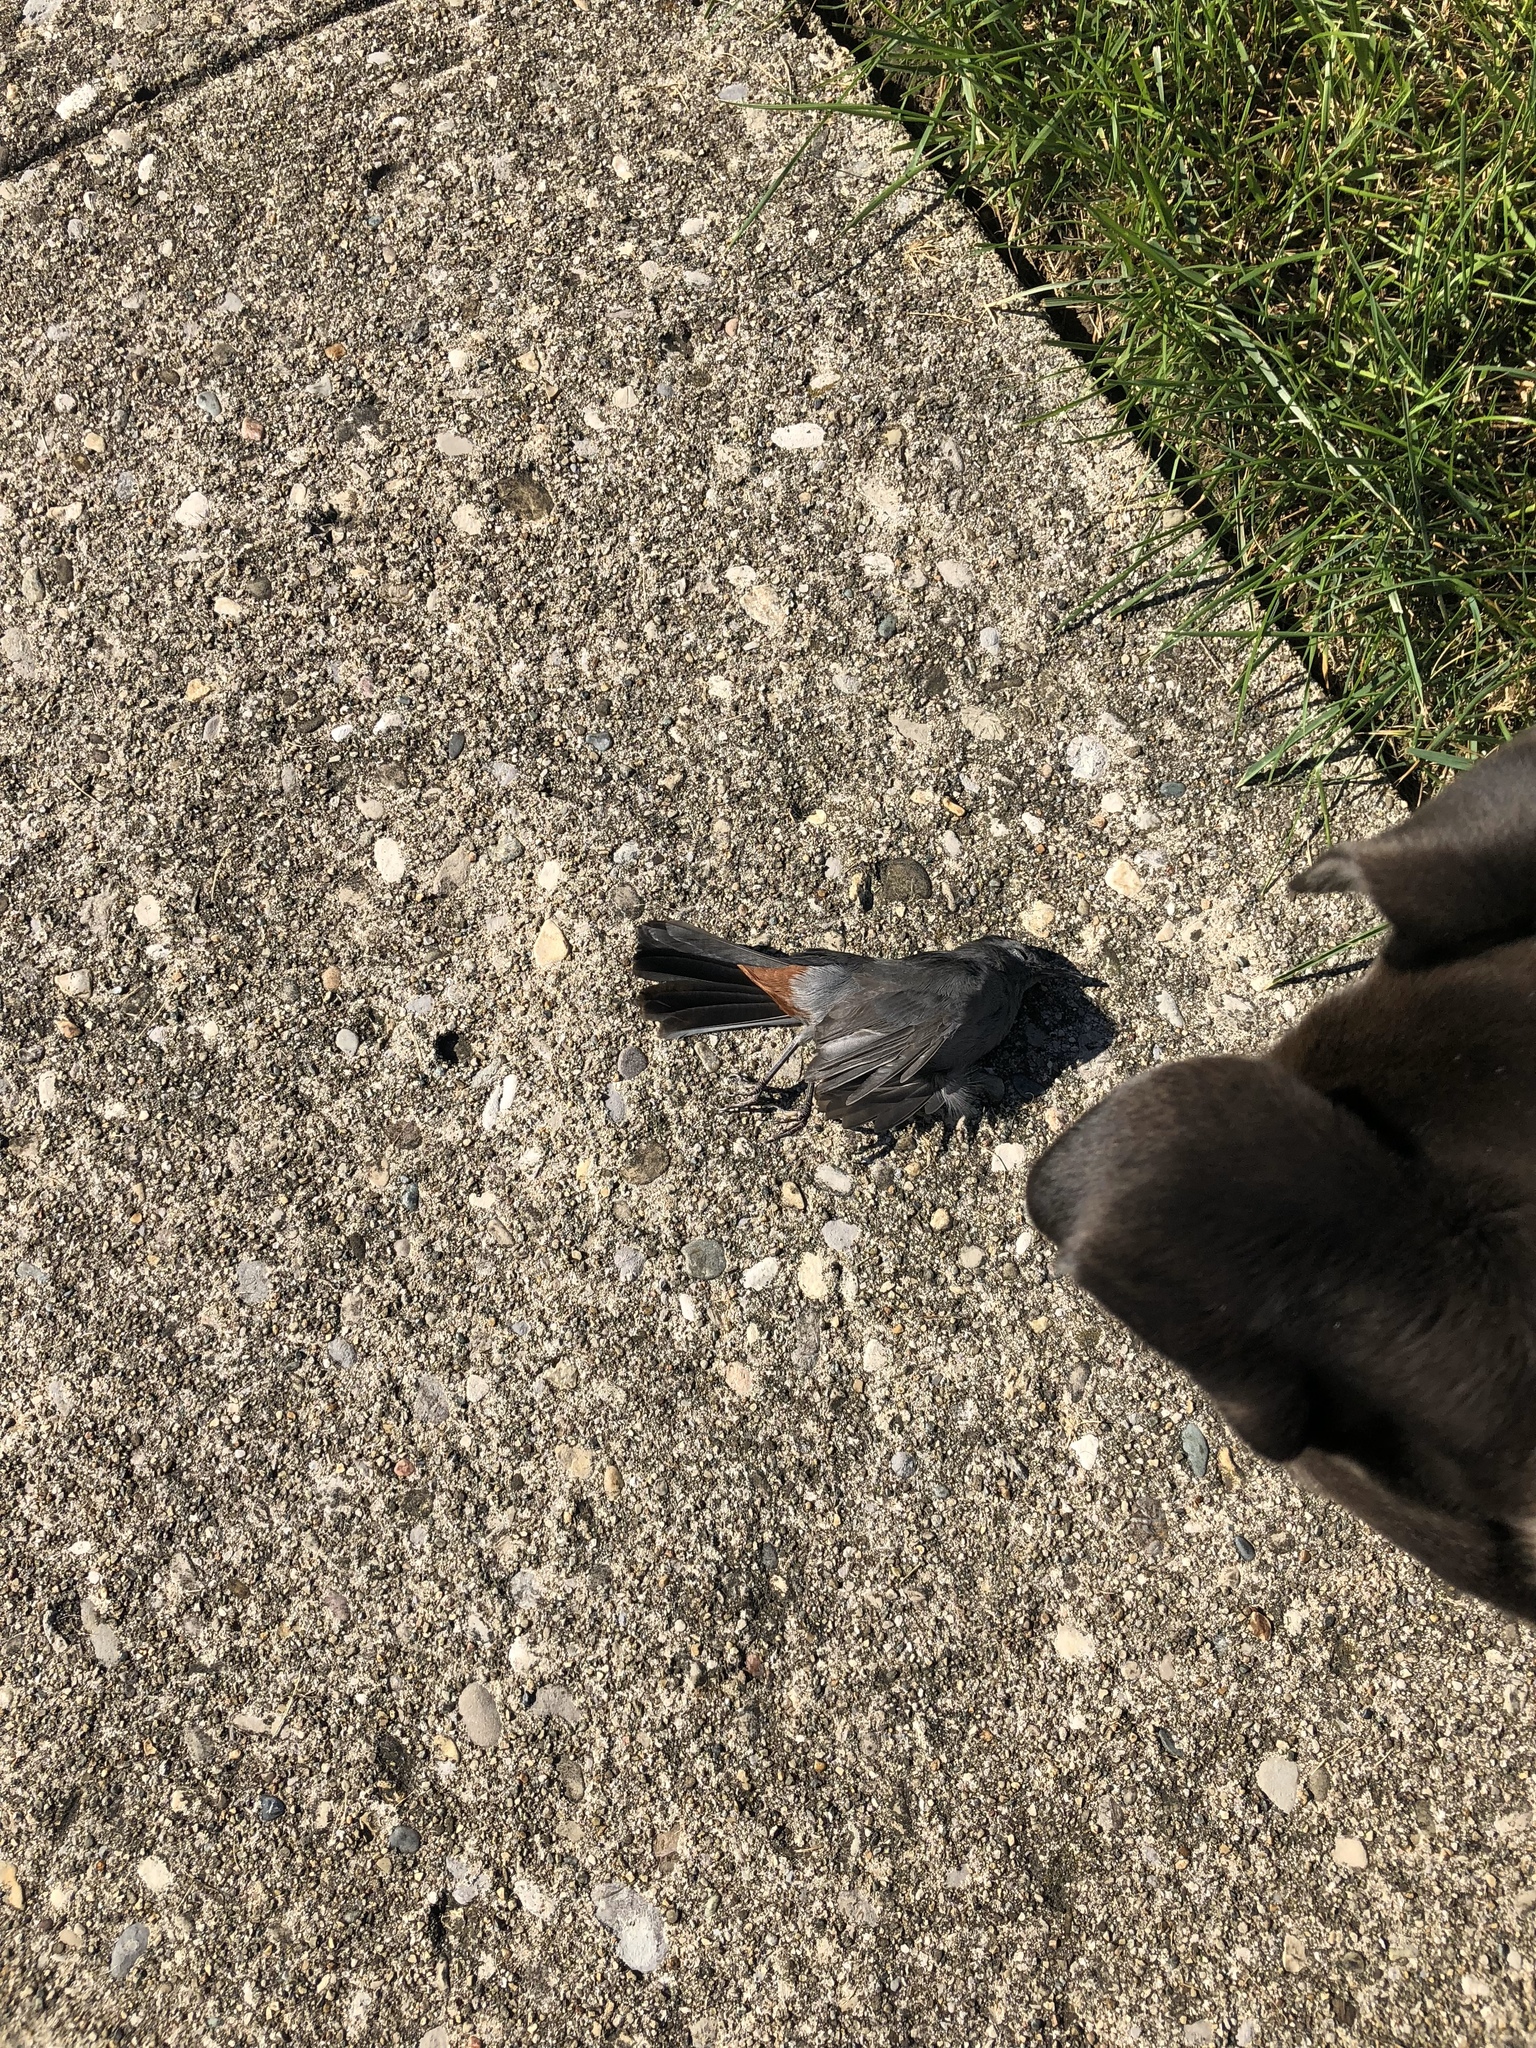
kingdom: Animalia
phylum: Chordata
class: Aves
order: Passeriformes
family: Mimidae
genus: Dumetella
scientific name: Dumetella carolinensis
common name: Gray catbird
